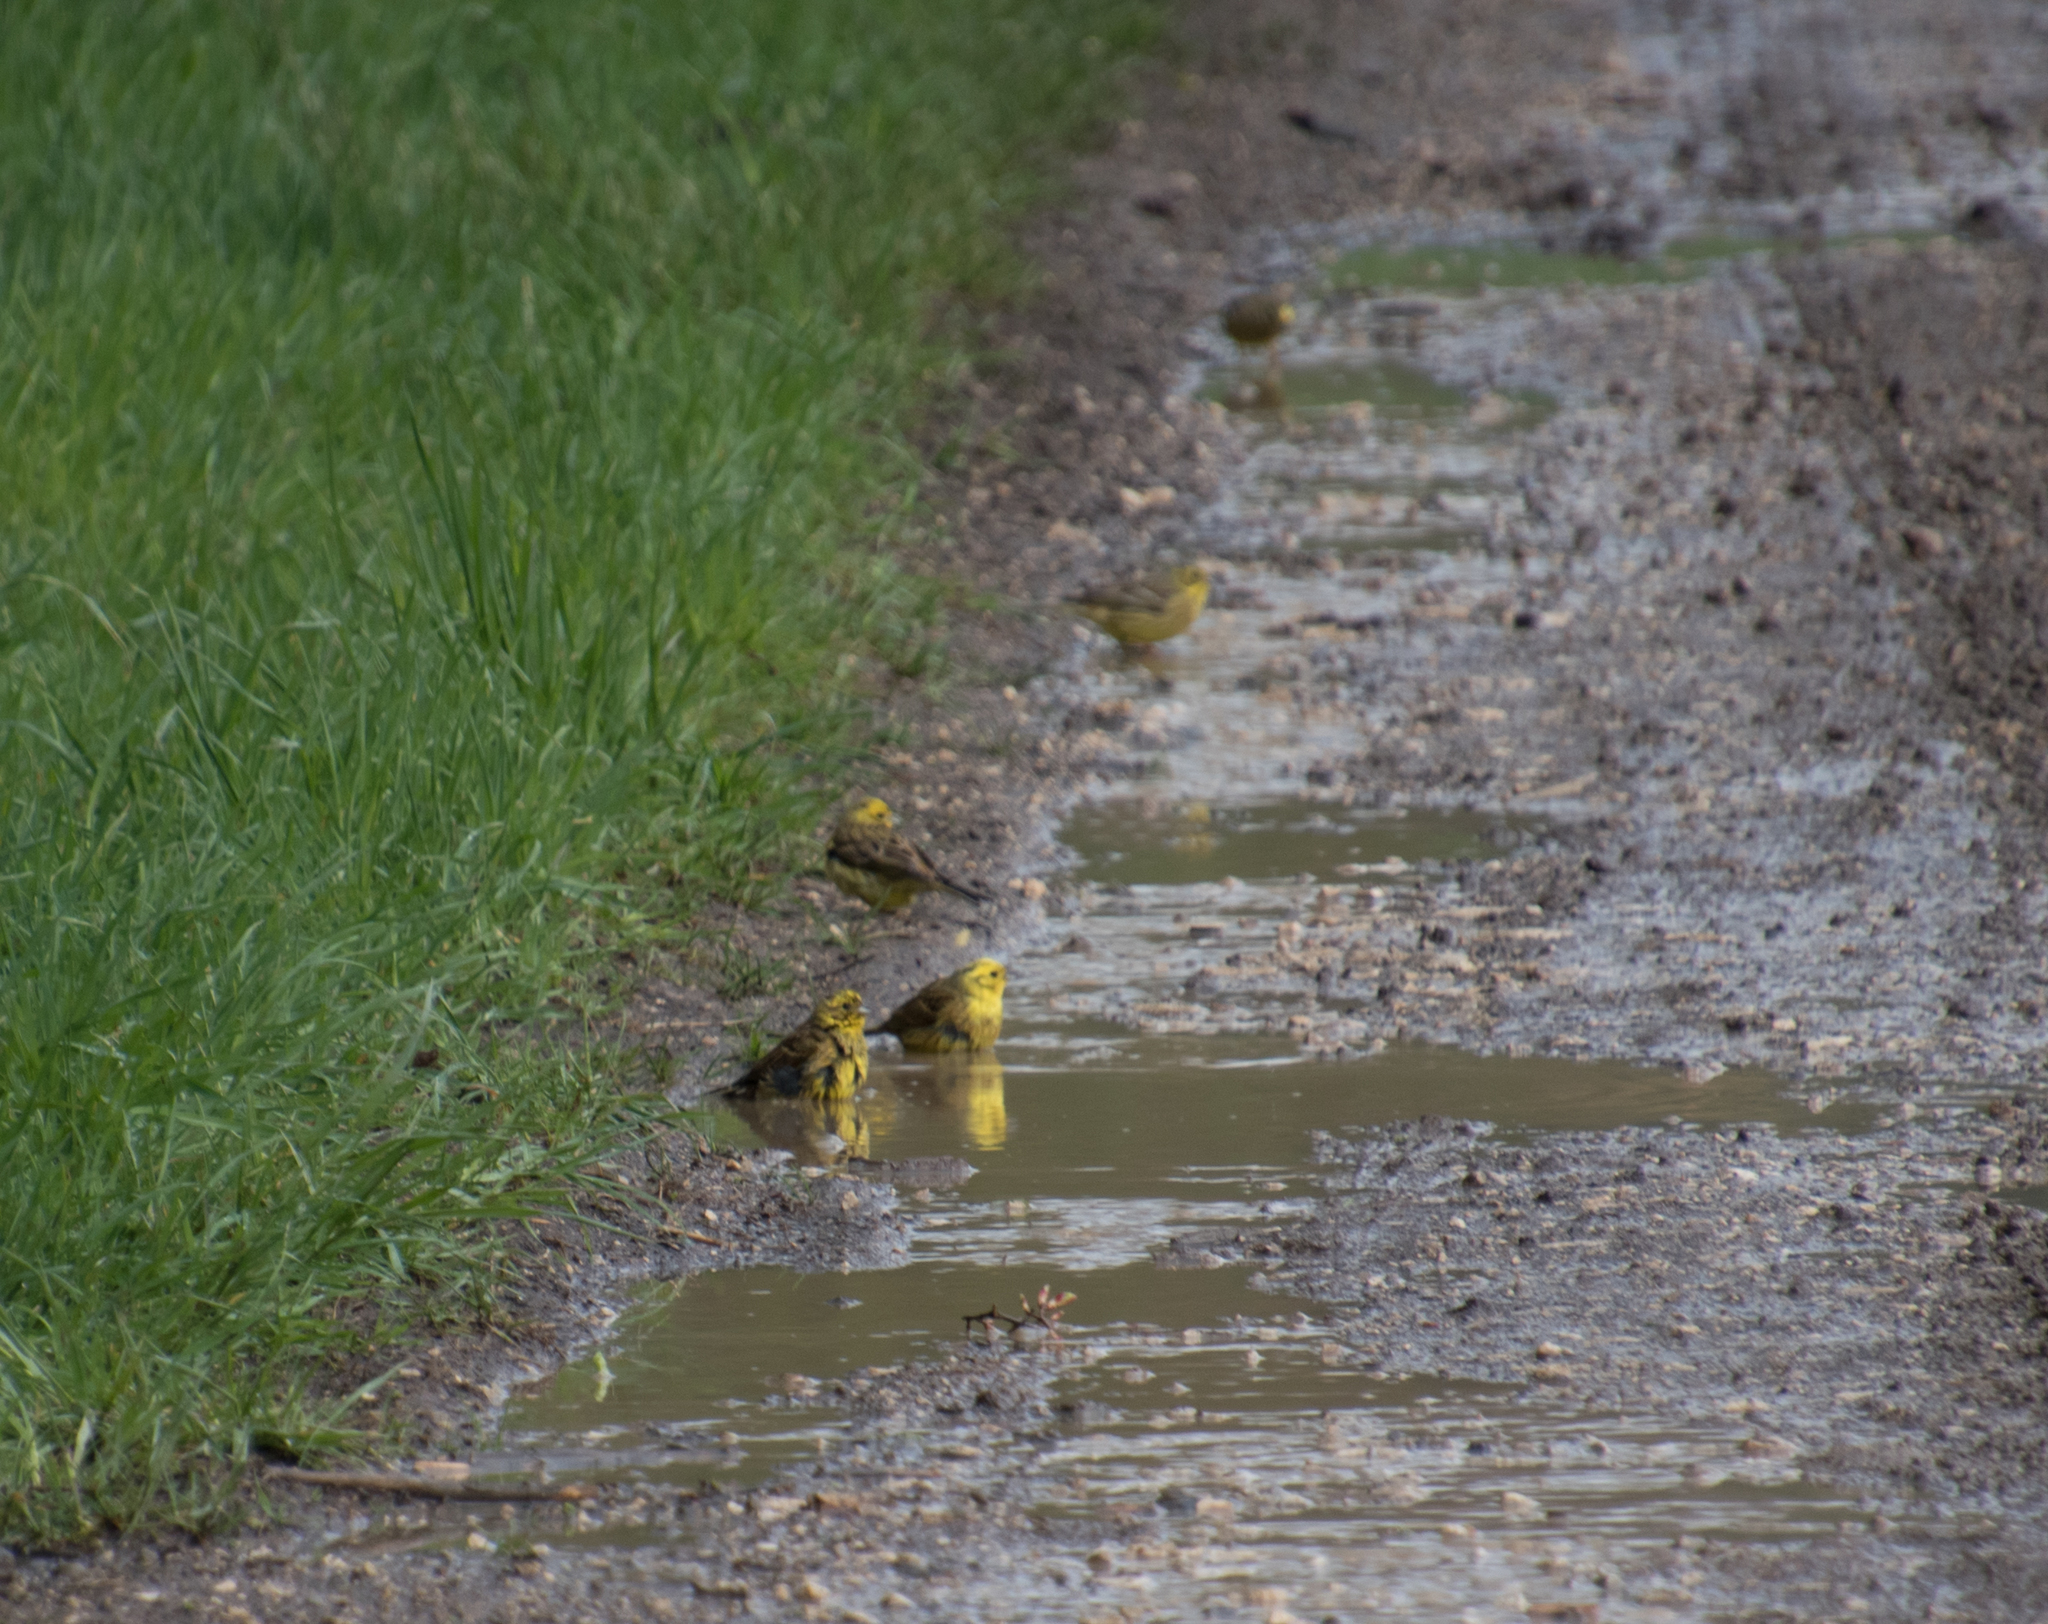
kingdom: Animalia
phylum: Chordata
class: Aves
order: Passeriformes
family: Emberizidae
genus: Emberiza
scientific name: Emberiza citrinella
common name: Yellowhammer
